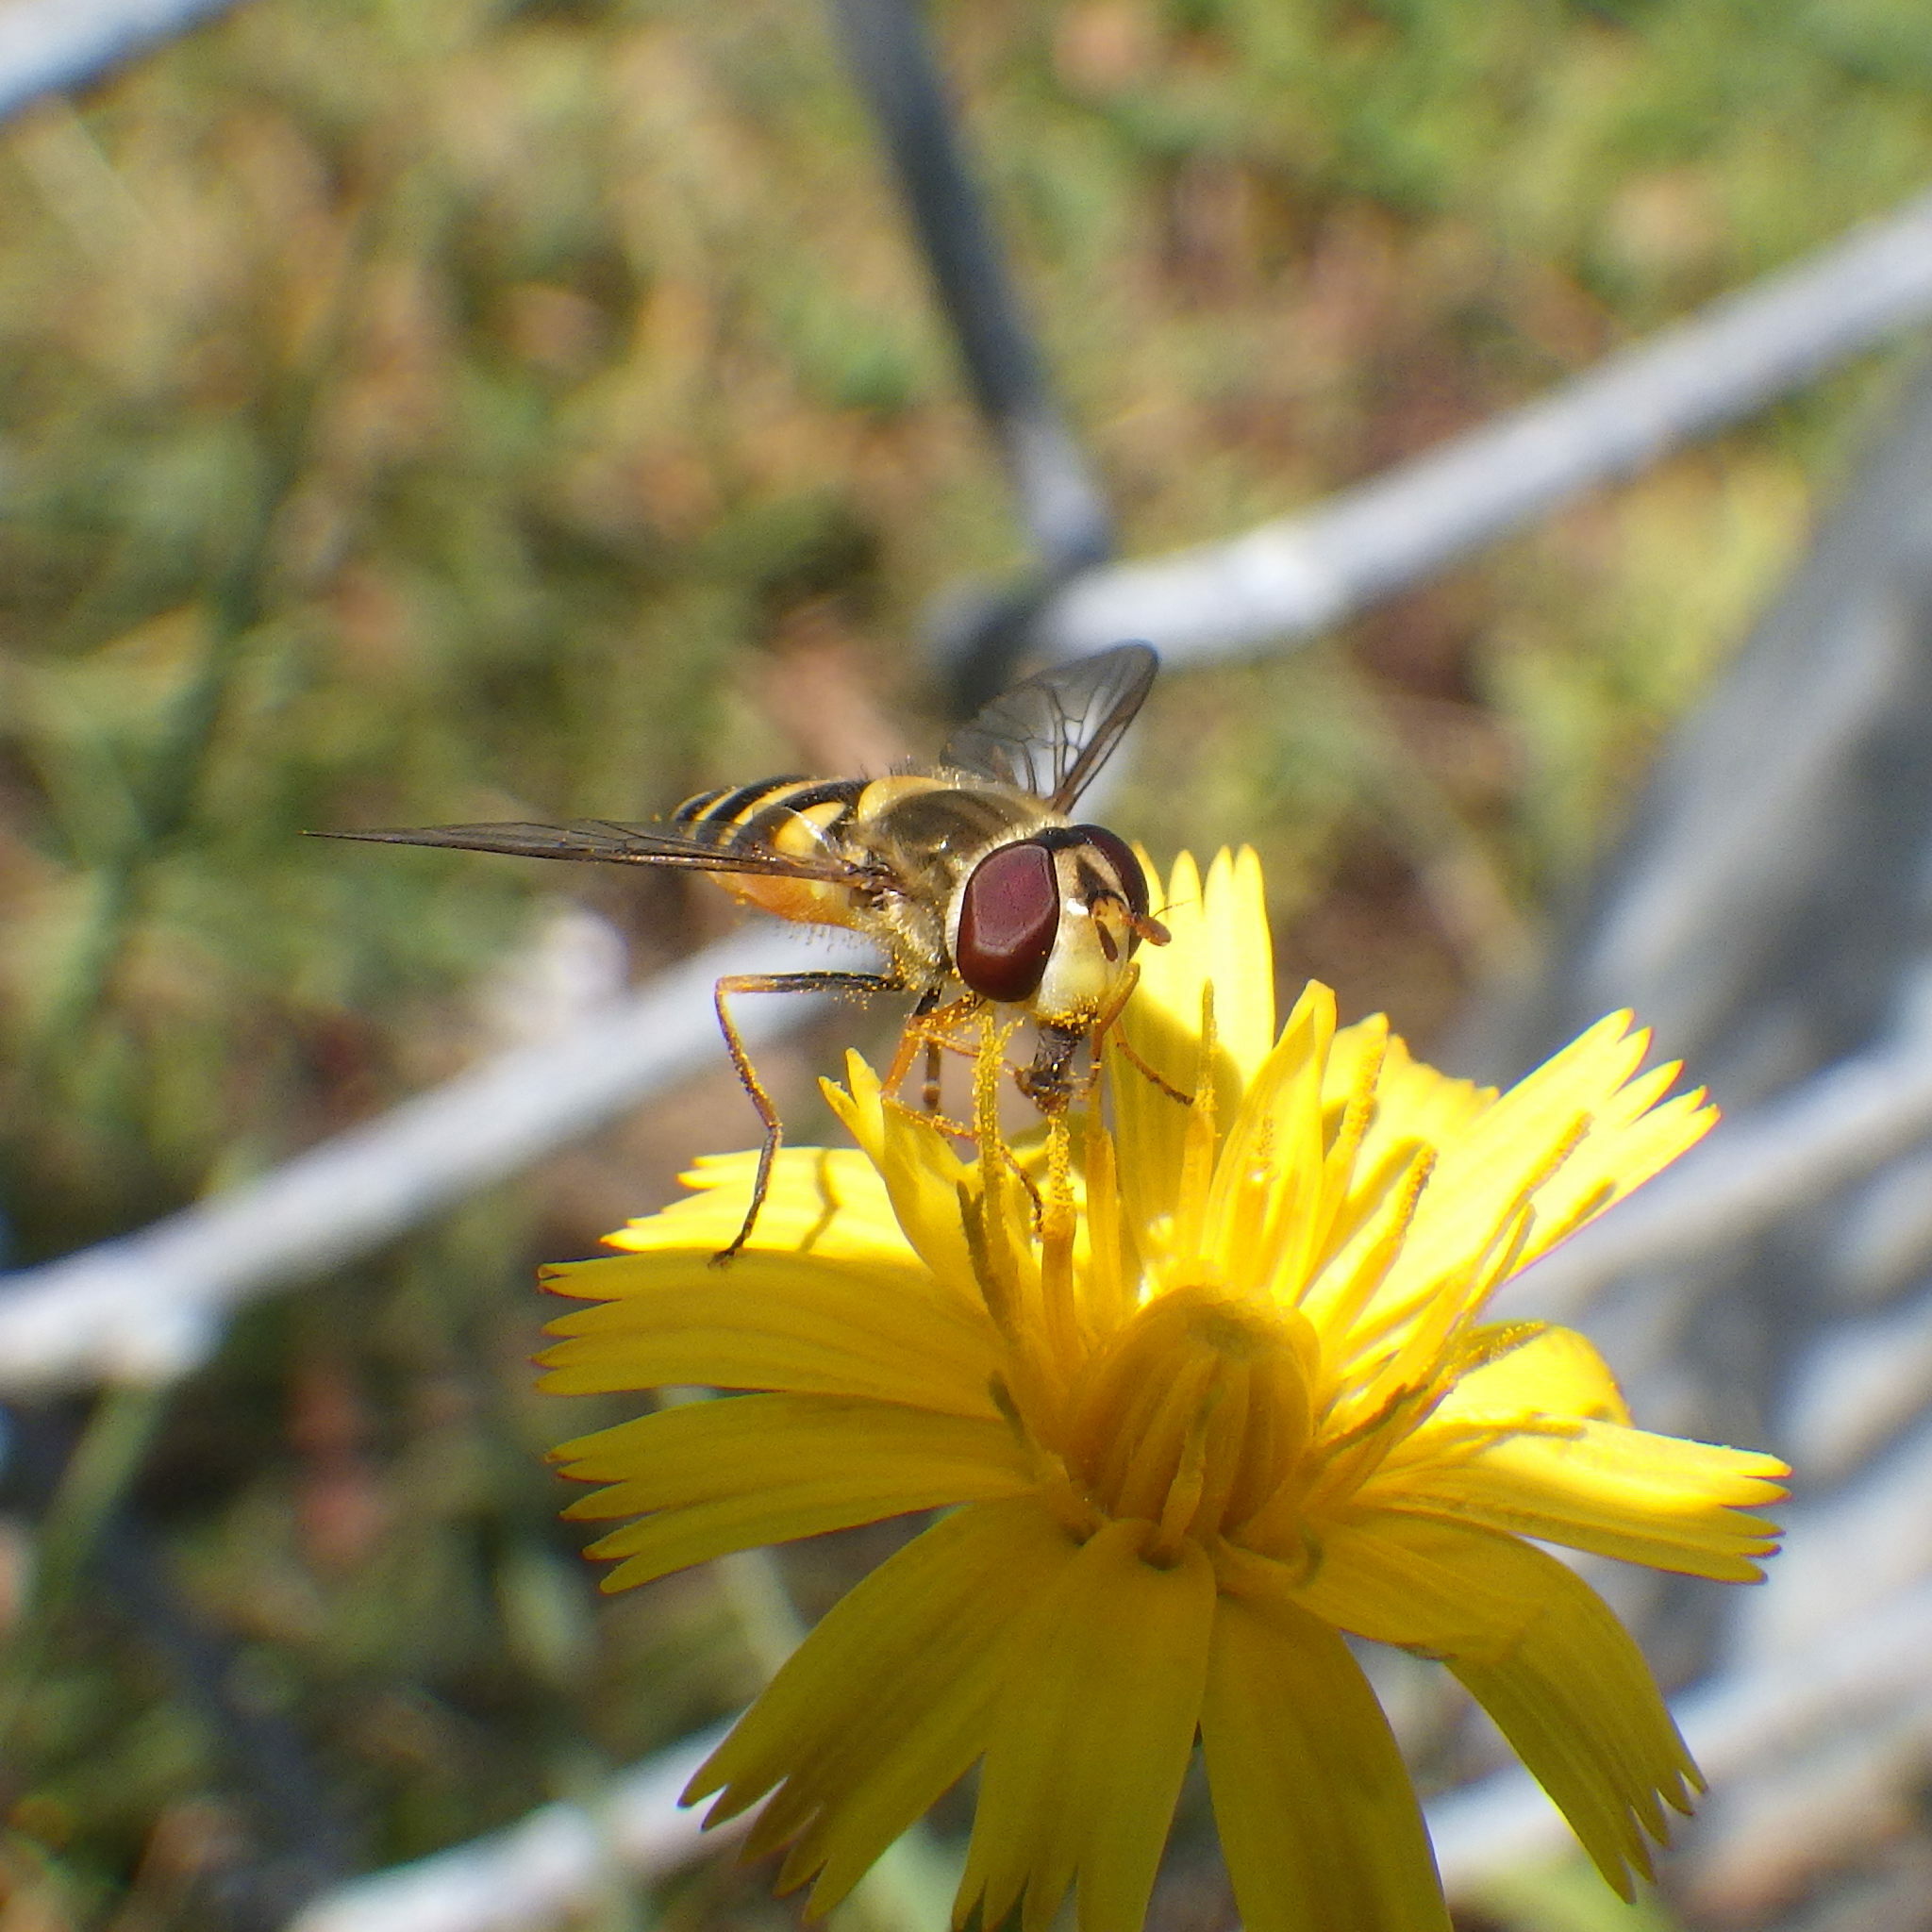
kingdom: Animalia
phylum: Arthropoda
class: Insecta
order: Diptera
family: Syrphidae
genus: Syrphus
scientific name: Syrphus
